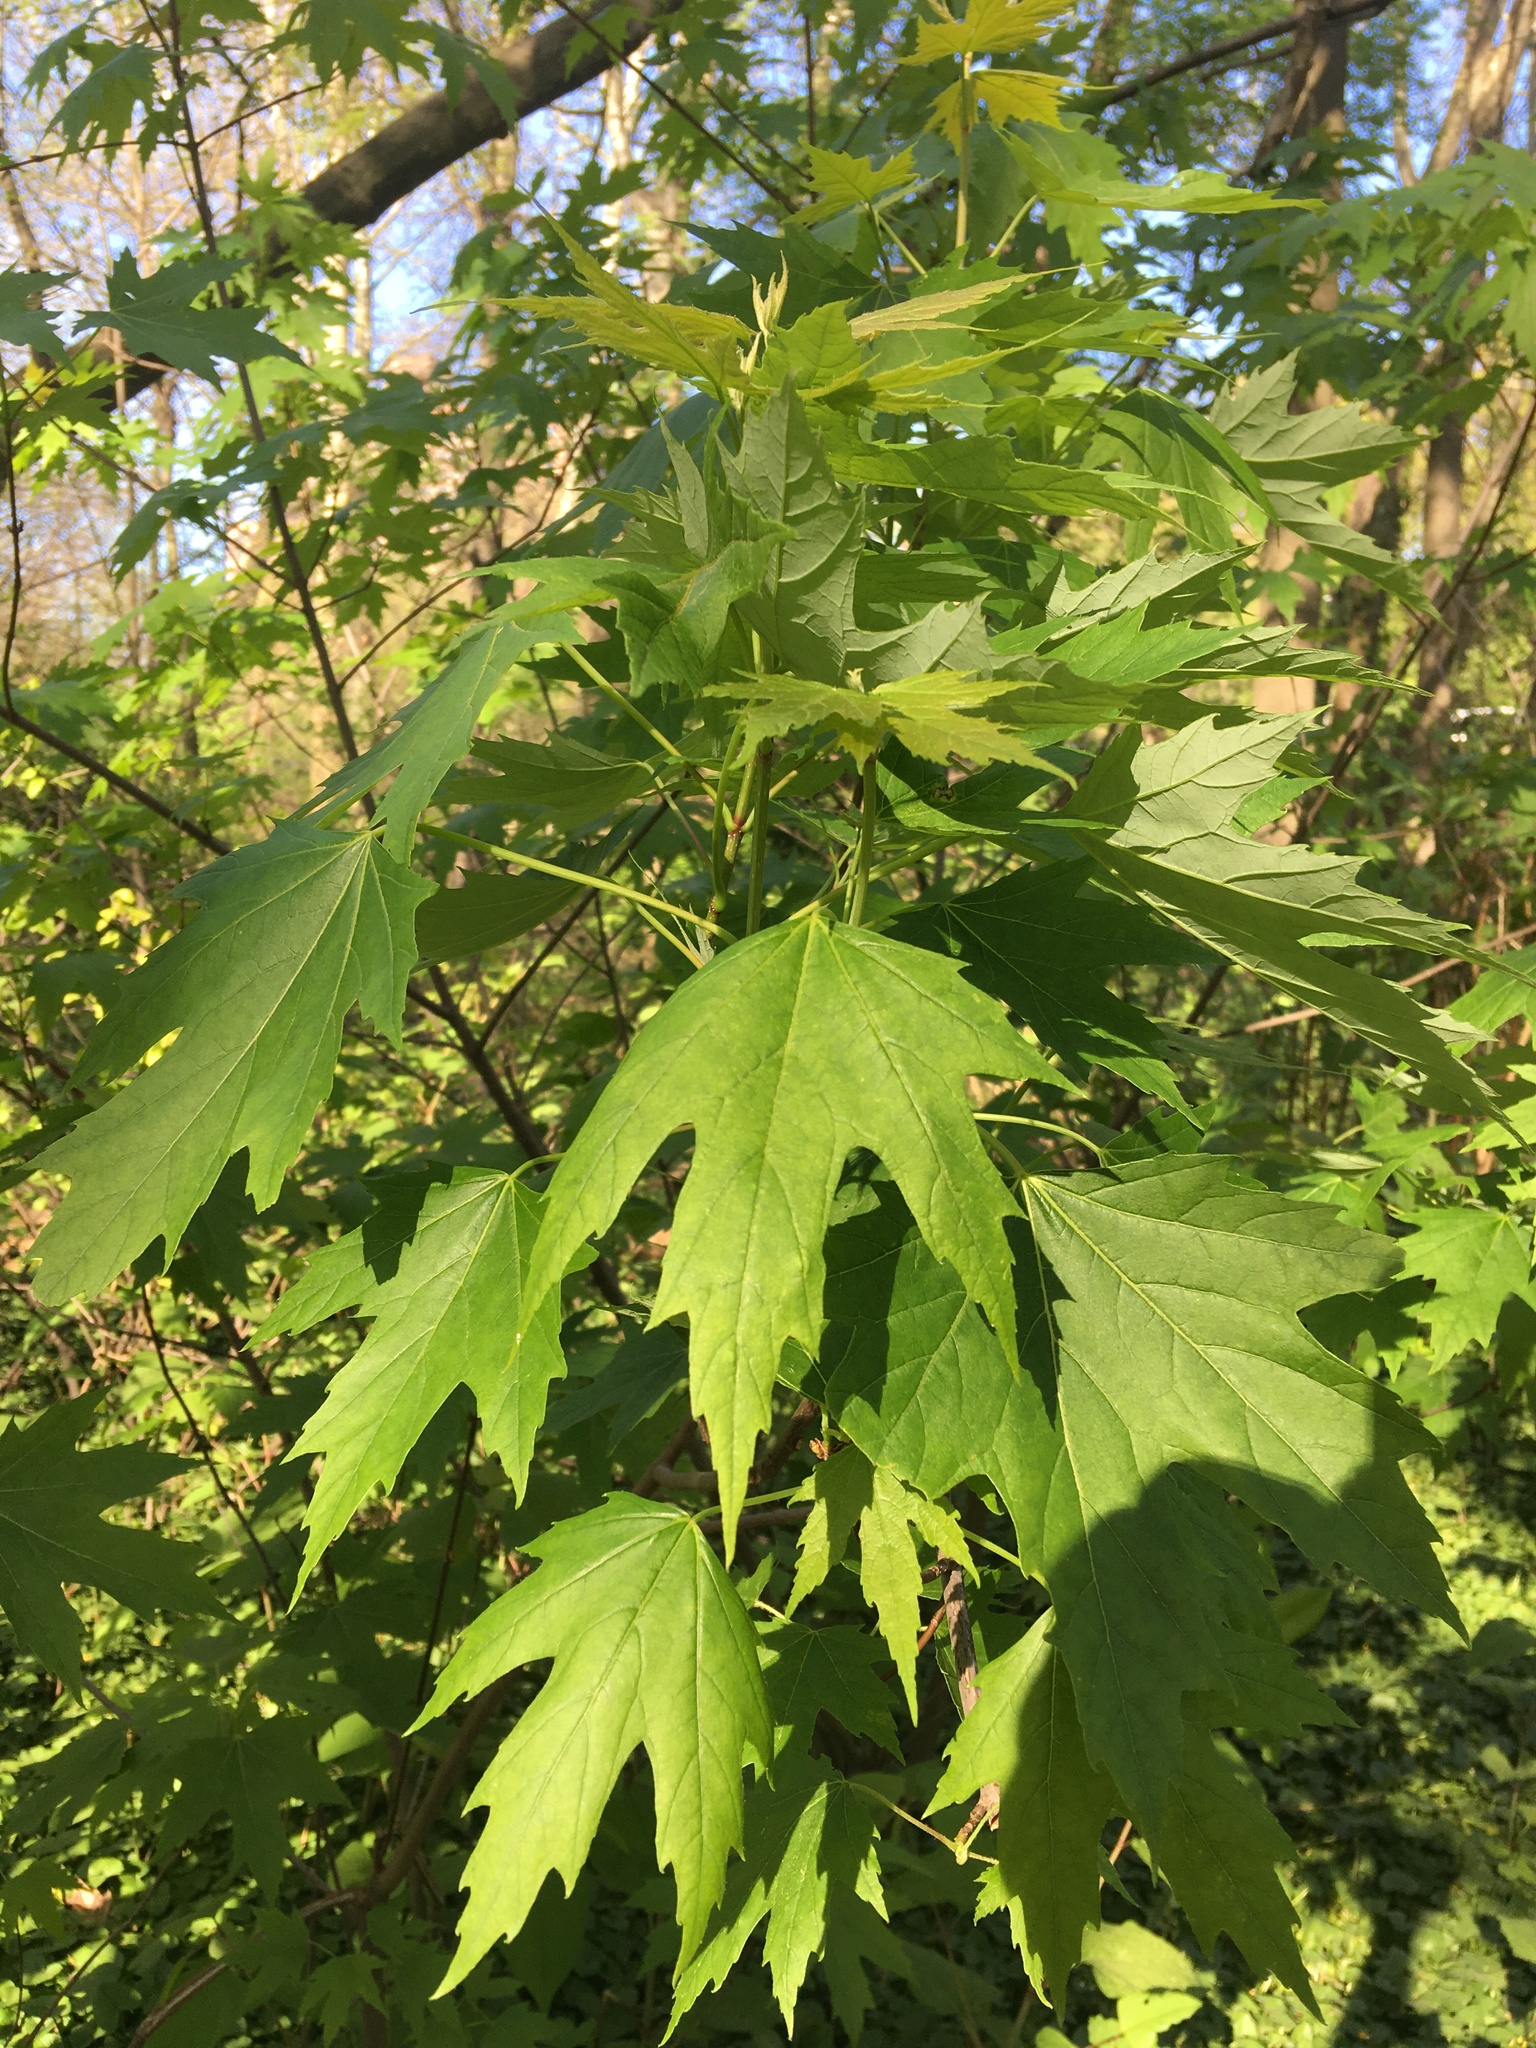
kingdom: Plantae
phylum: Tracheophyta
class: Magnoliopsida
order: Sapindales
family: Sapindaceae
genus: Acer
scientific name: Acer saccharinum
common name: Silver maple
